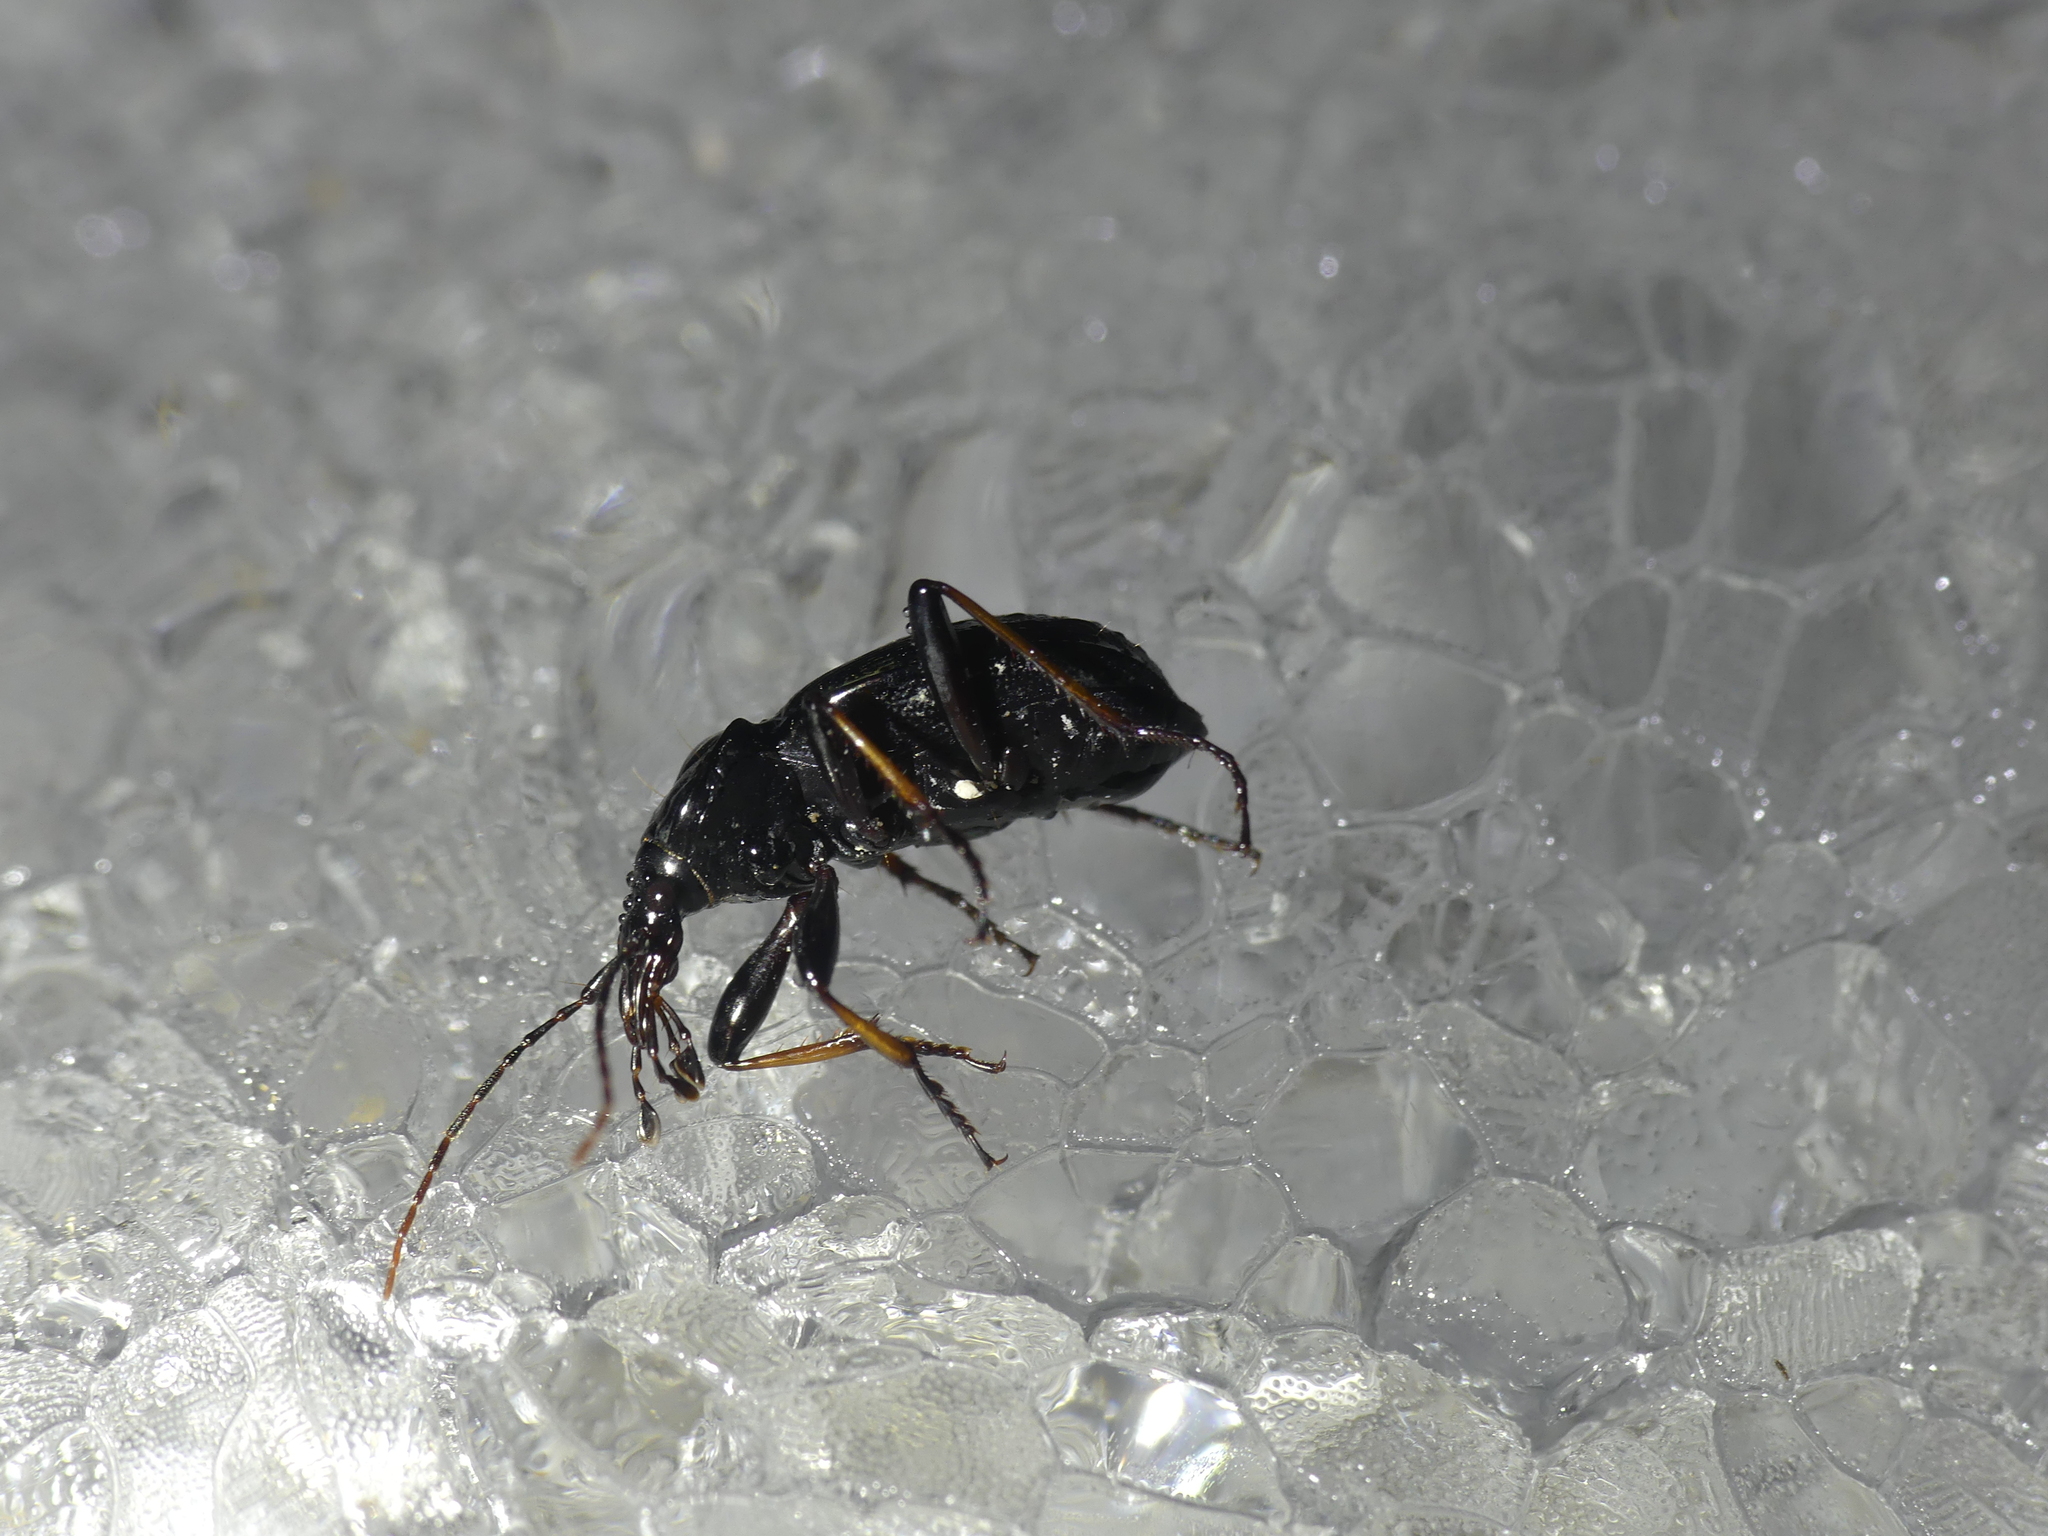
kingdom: Animalia
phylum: Arthropoda
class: Insecta
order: Coleoptera
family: Carabidae
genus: Cychrus
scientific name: Cychrus attenuatus
